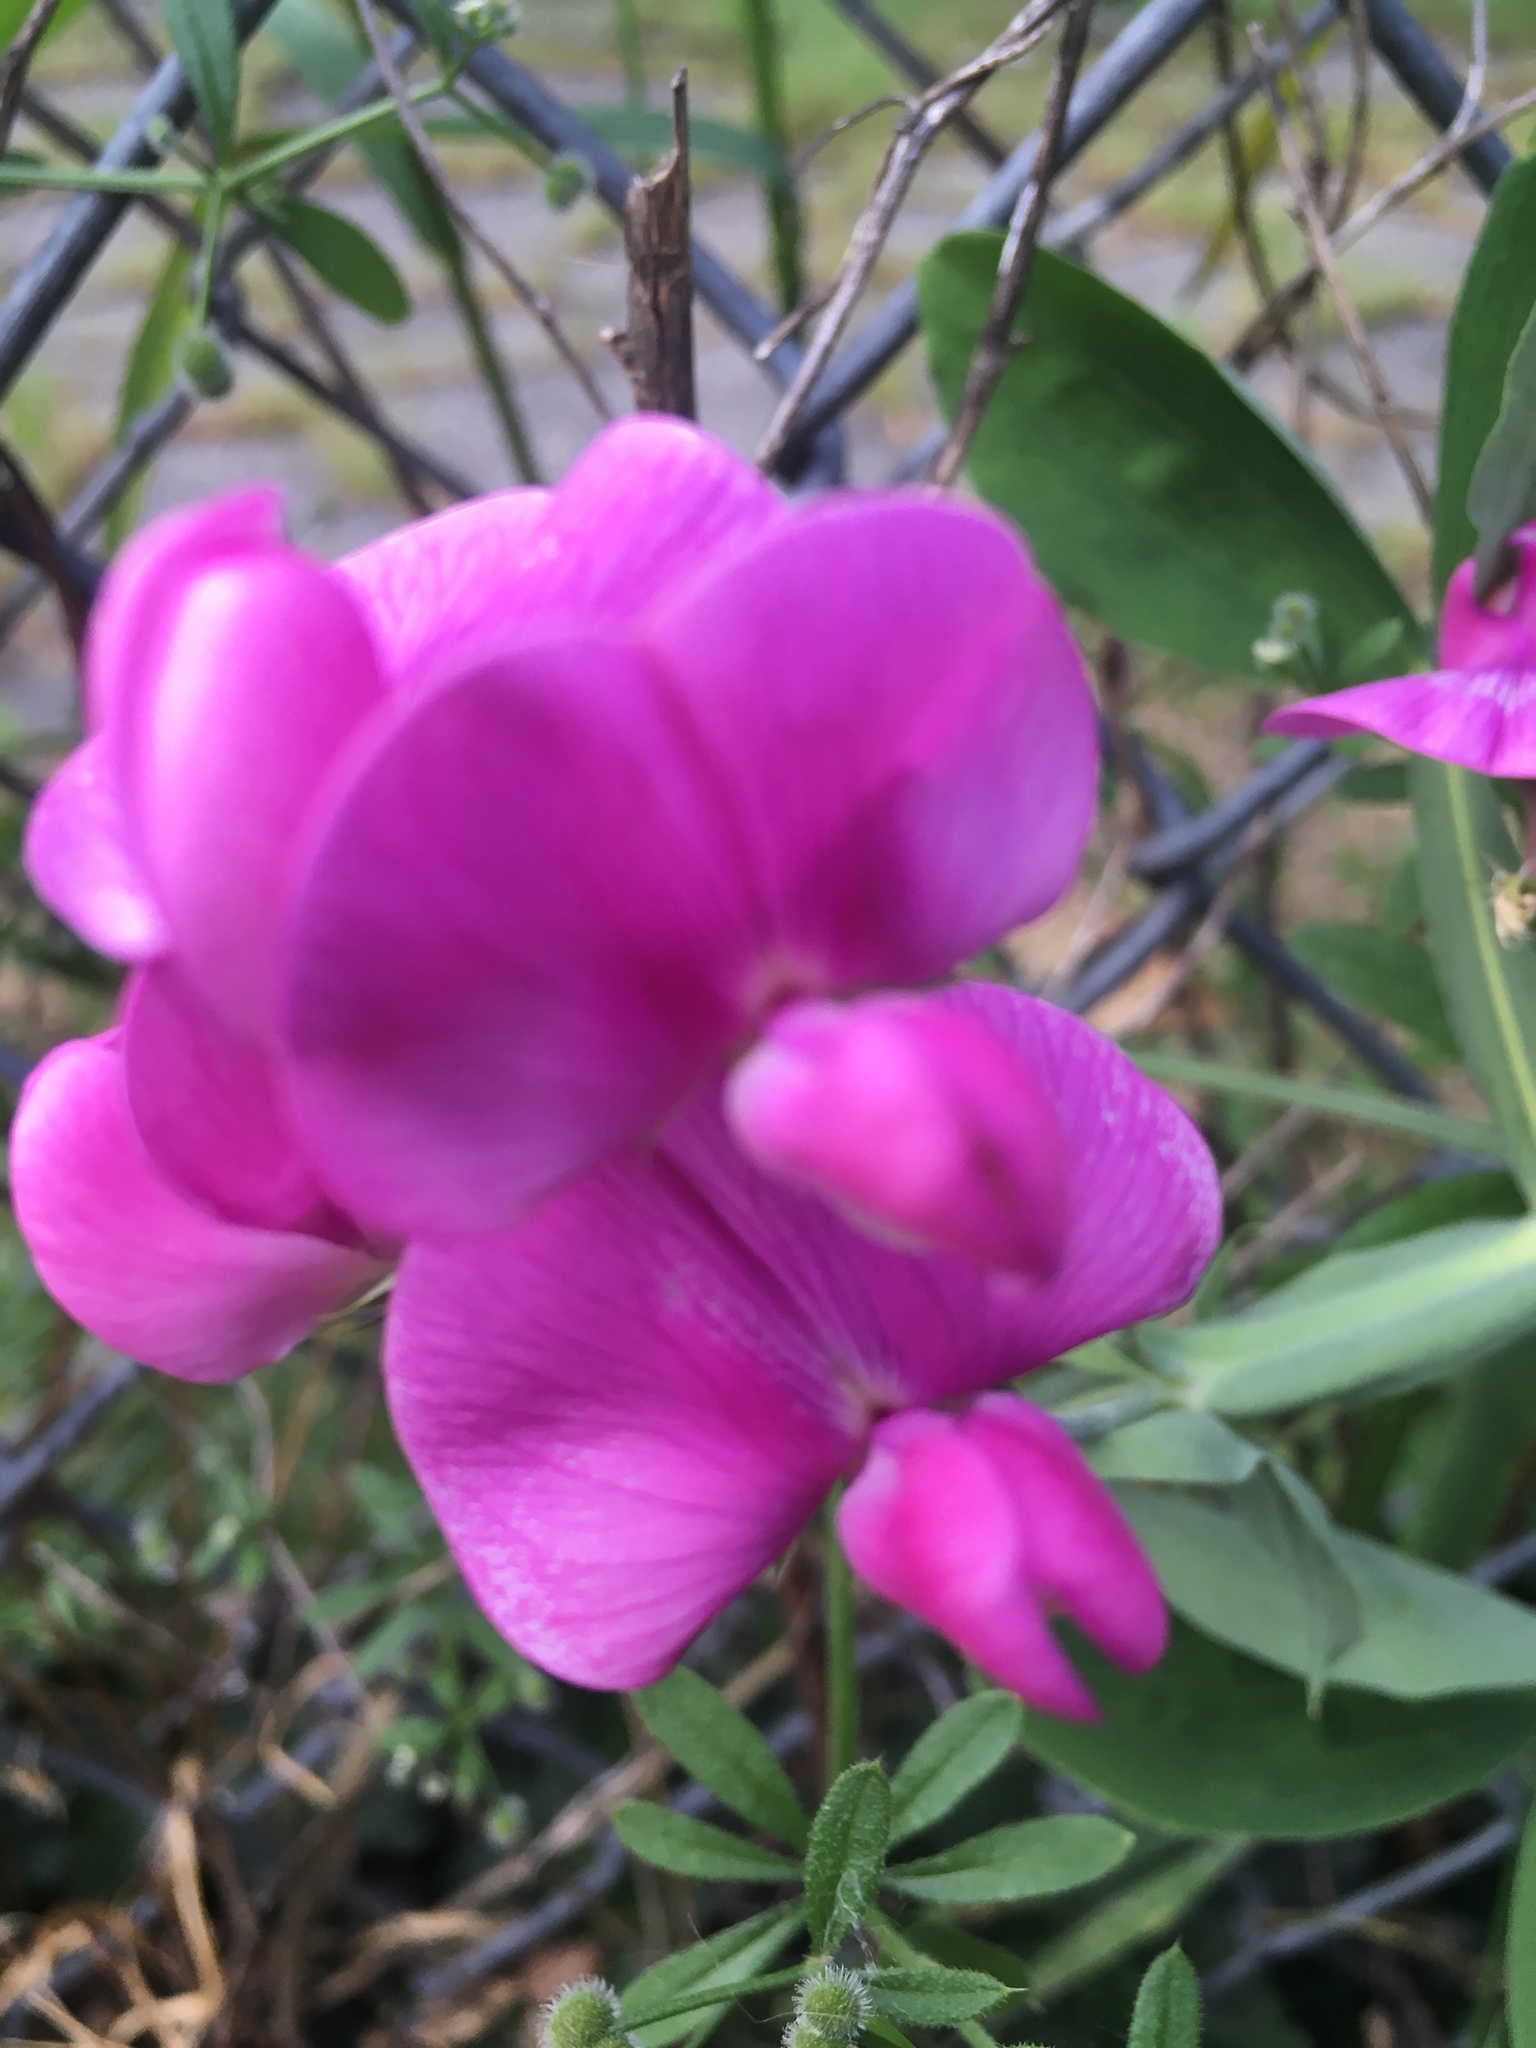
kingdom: Plantae
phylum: Tracheophyta
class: Magnoliopsida
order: Fabales
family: Fabaceae
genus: Lathyrus
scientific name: Lathyrus latifolius
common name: Perennial pea
